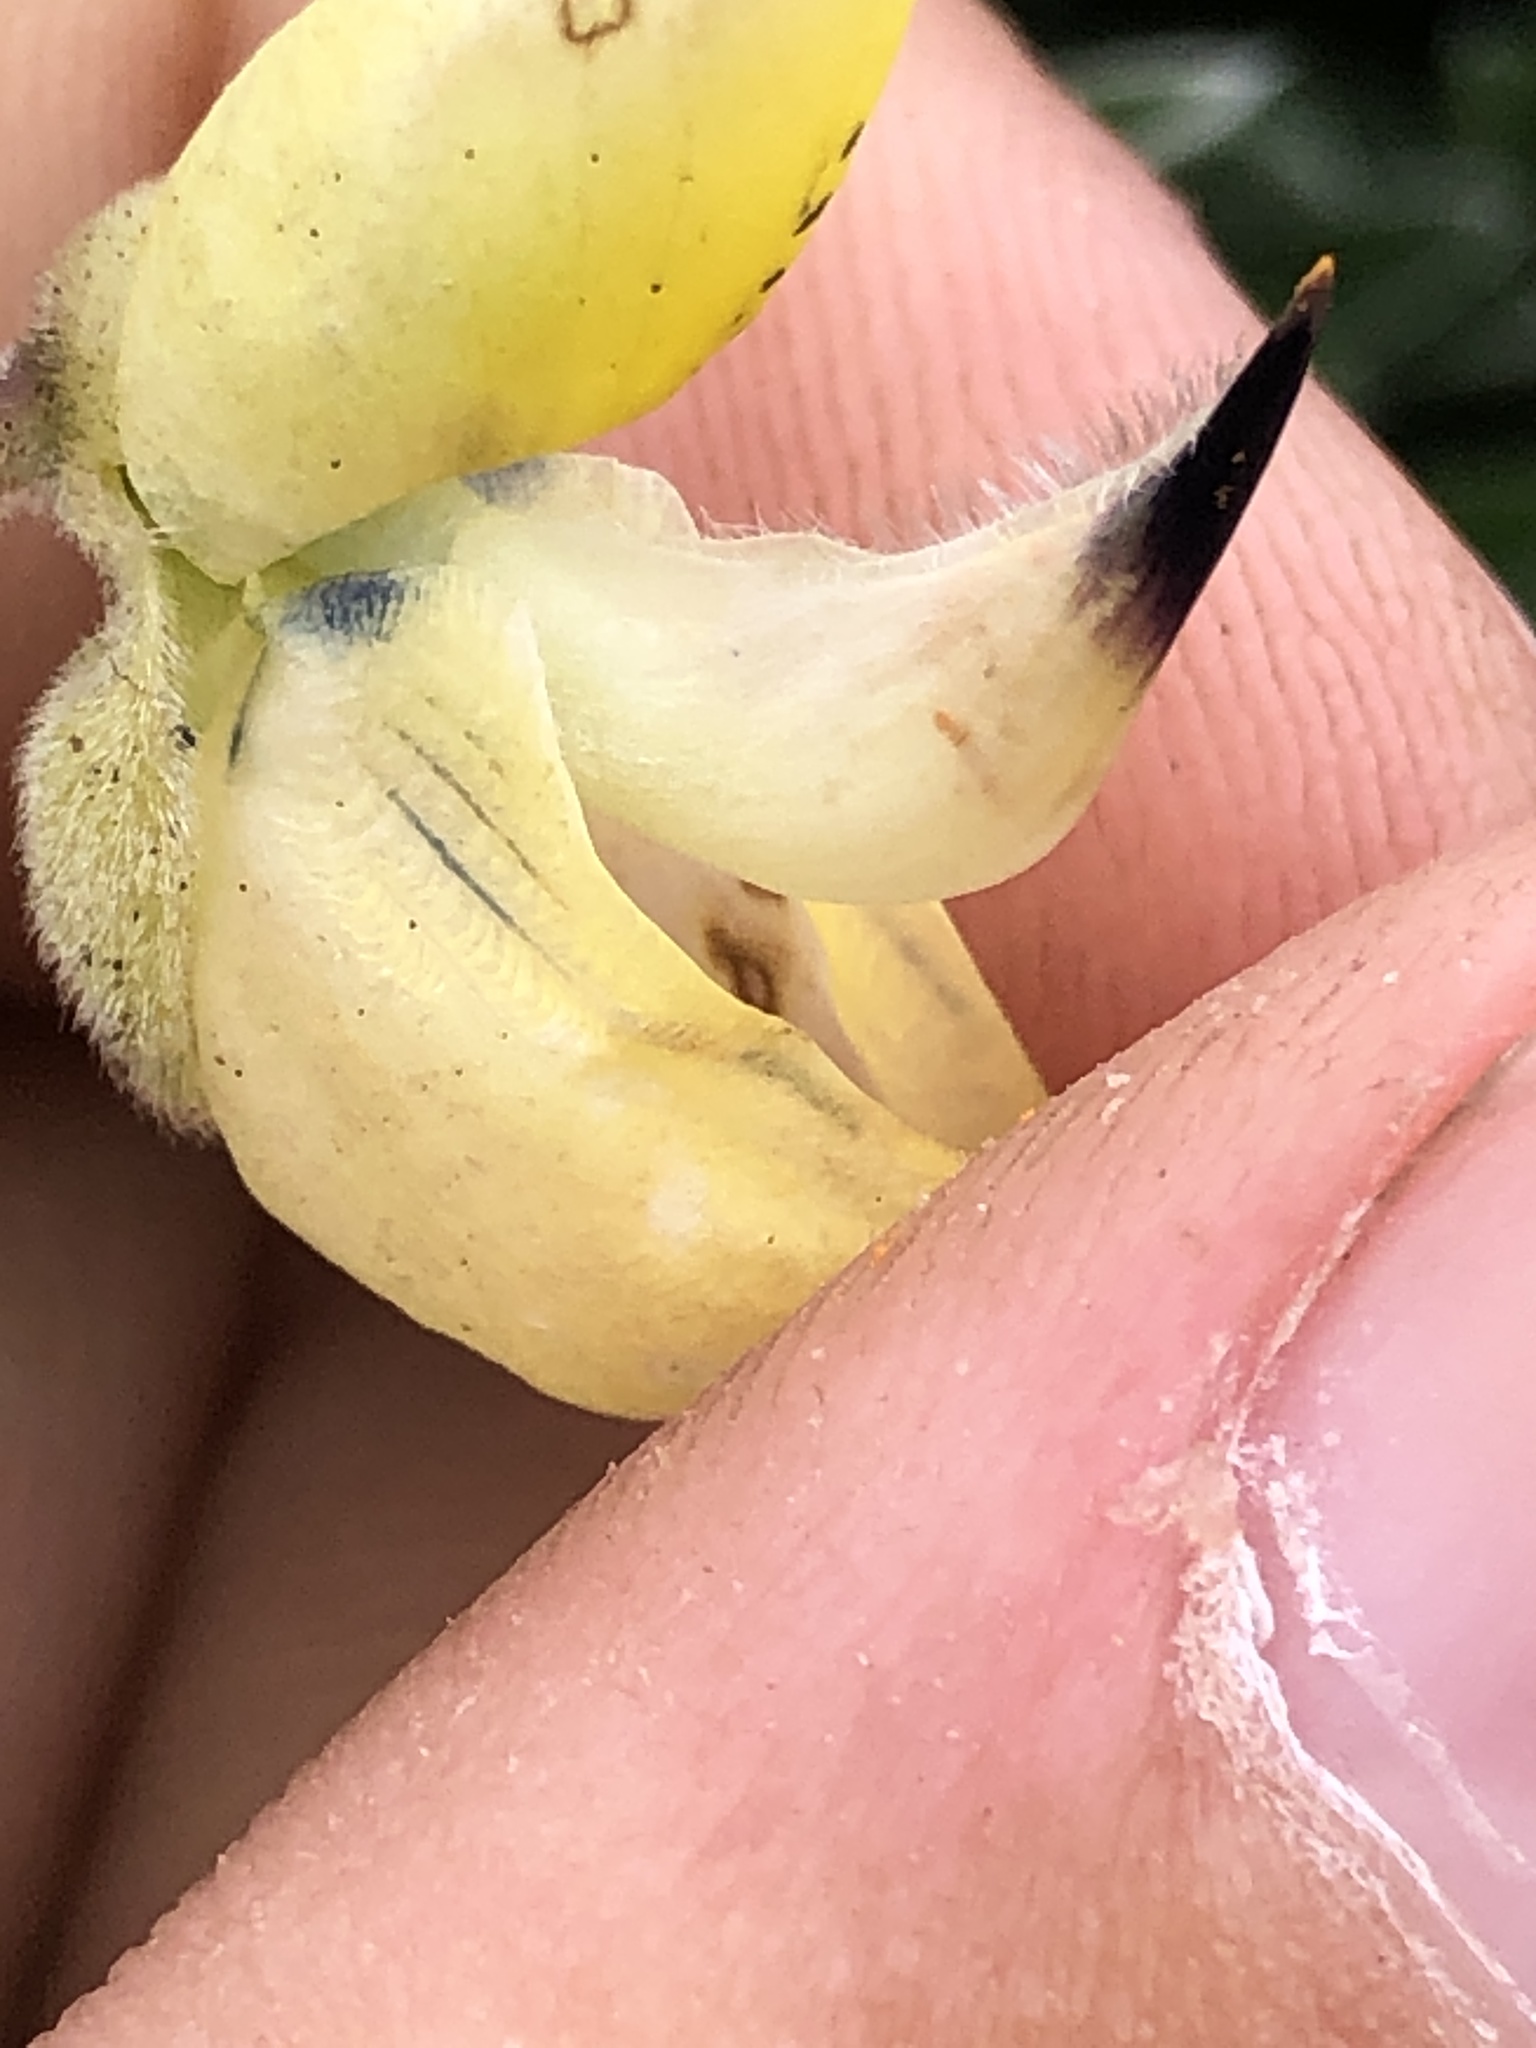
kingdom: Plantae
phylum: Tracheophyta
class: Magnoliopsida
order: Fabales
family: Fabaceae
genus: Lupinus
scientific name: Lupinus arboreus
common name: Yellow bush lupine
